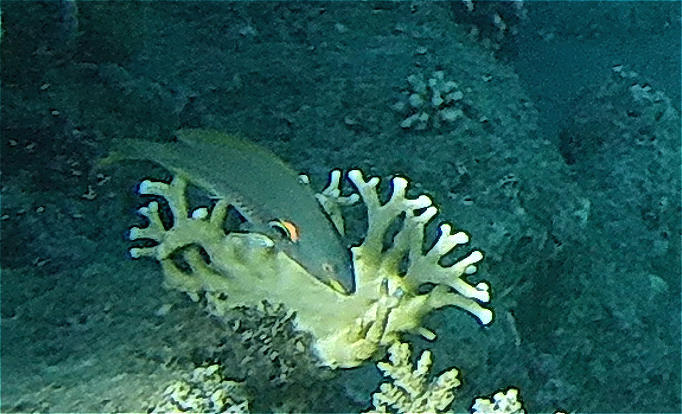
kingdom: Animalia
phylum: Chordata
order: Perciformes
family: Labridae
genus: Stethojulis
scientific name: Stethojulis albovittata
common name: Bluelined wrasse
